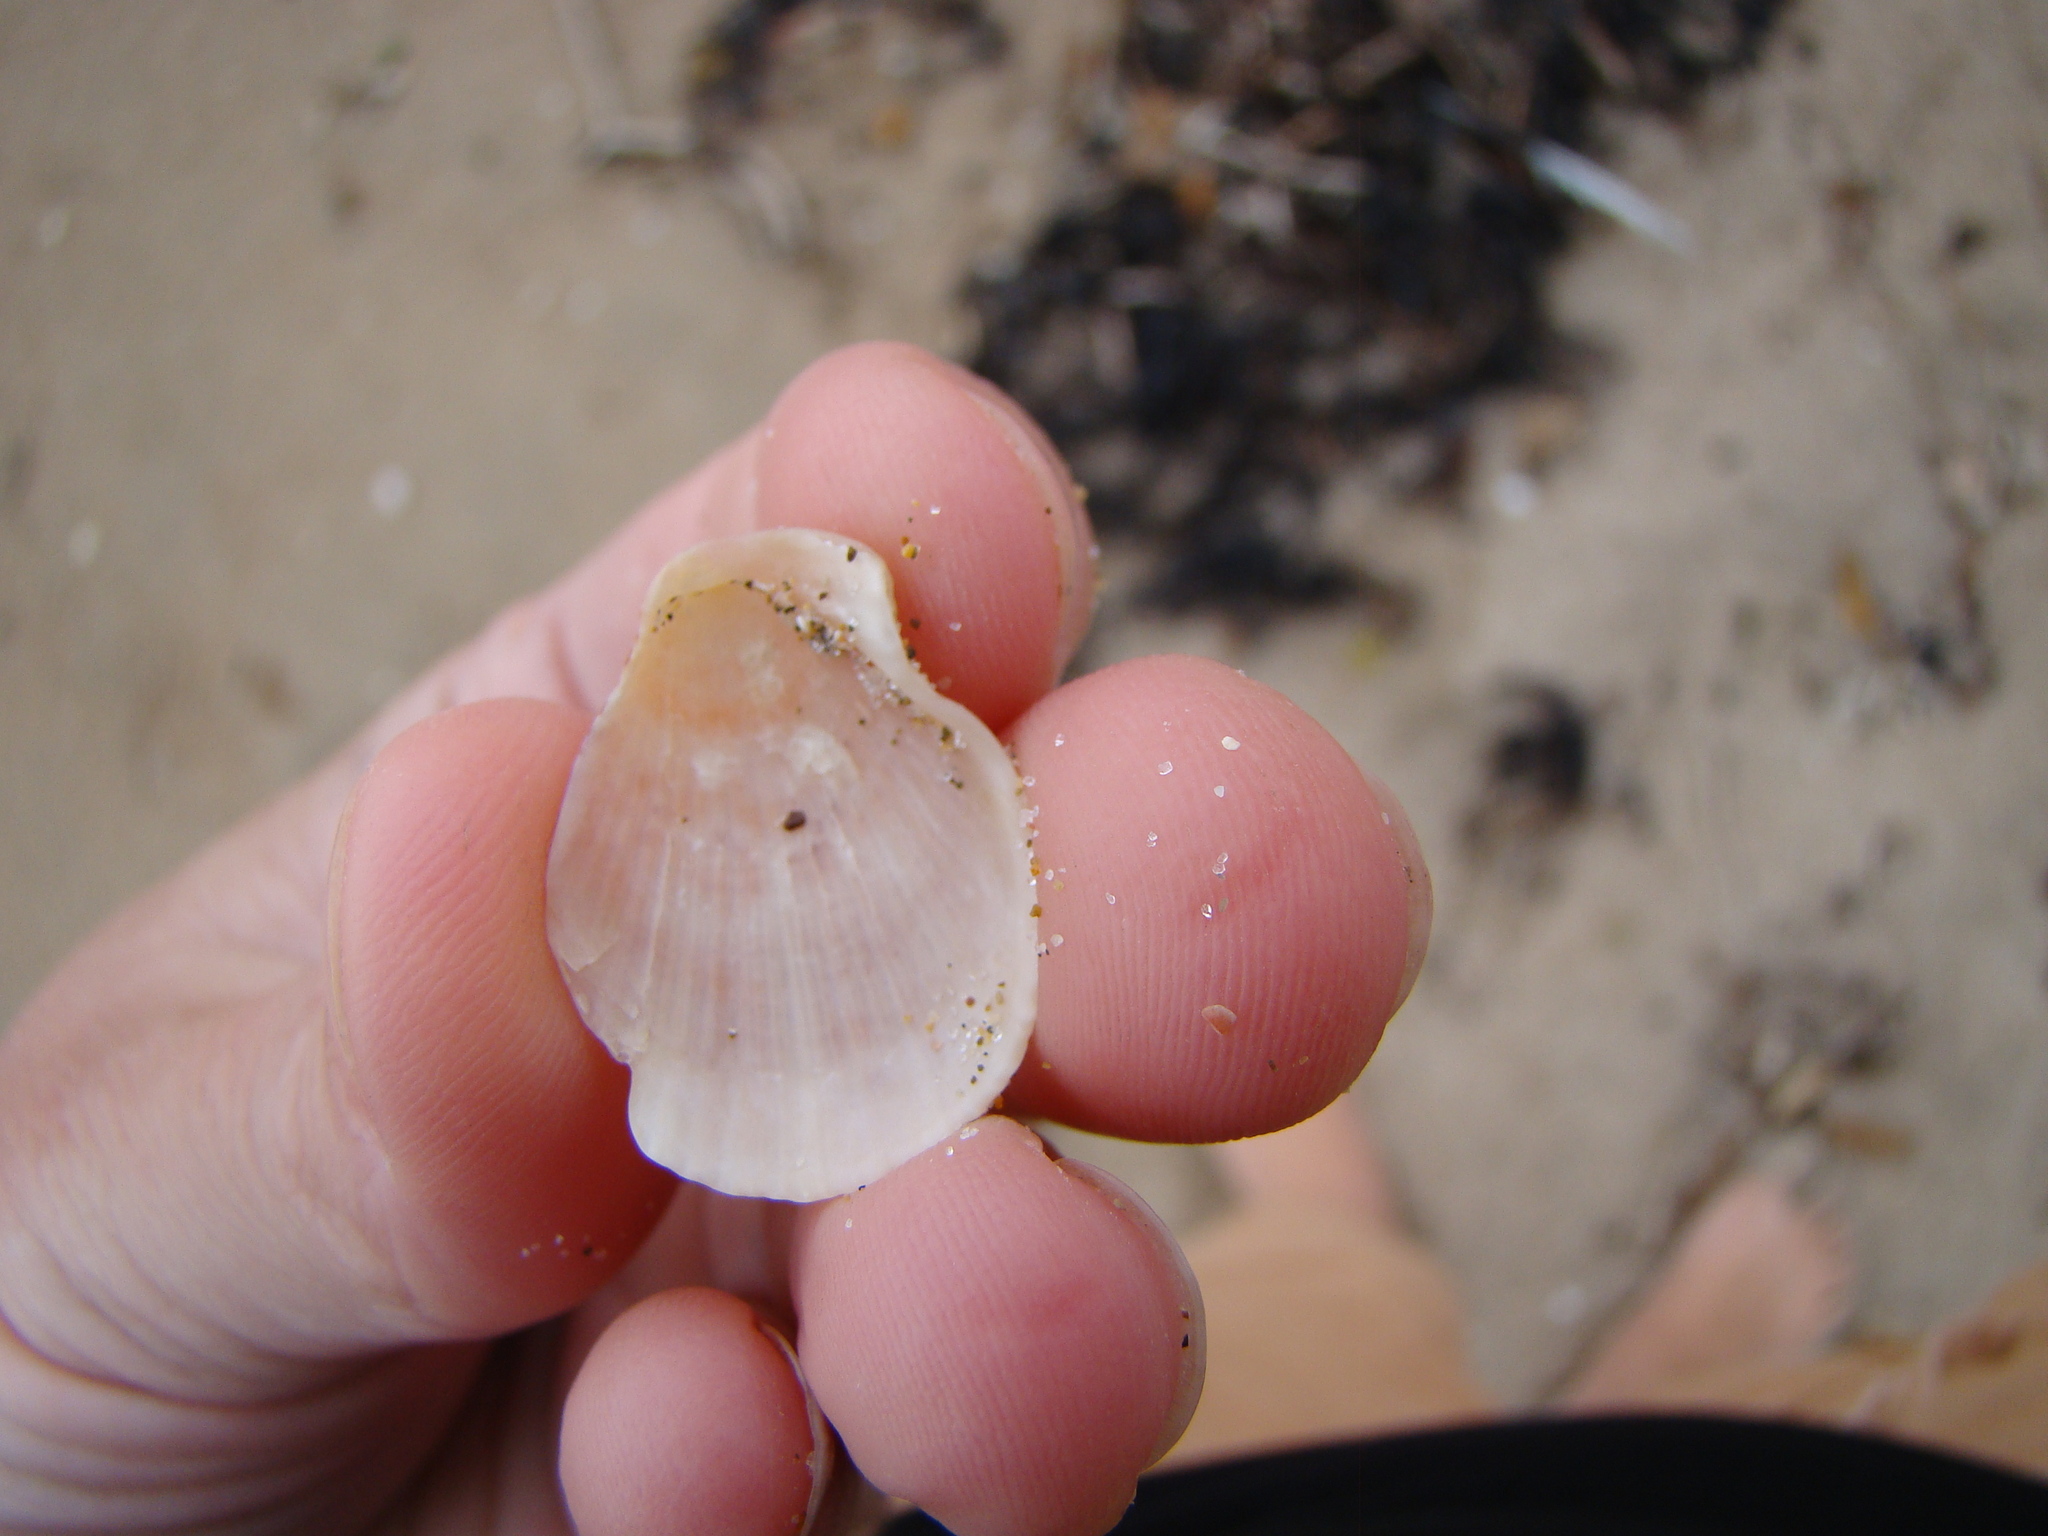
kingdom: Animalia
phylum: Mollusca
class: Bivalvia
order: Pectinida
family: Pectinidae
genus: Talochlamys
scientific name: Talochlamys zelandiae
